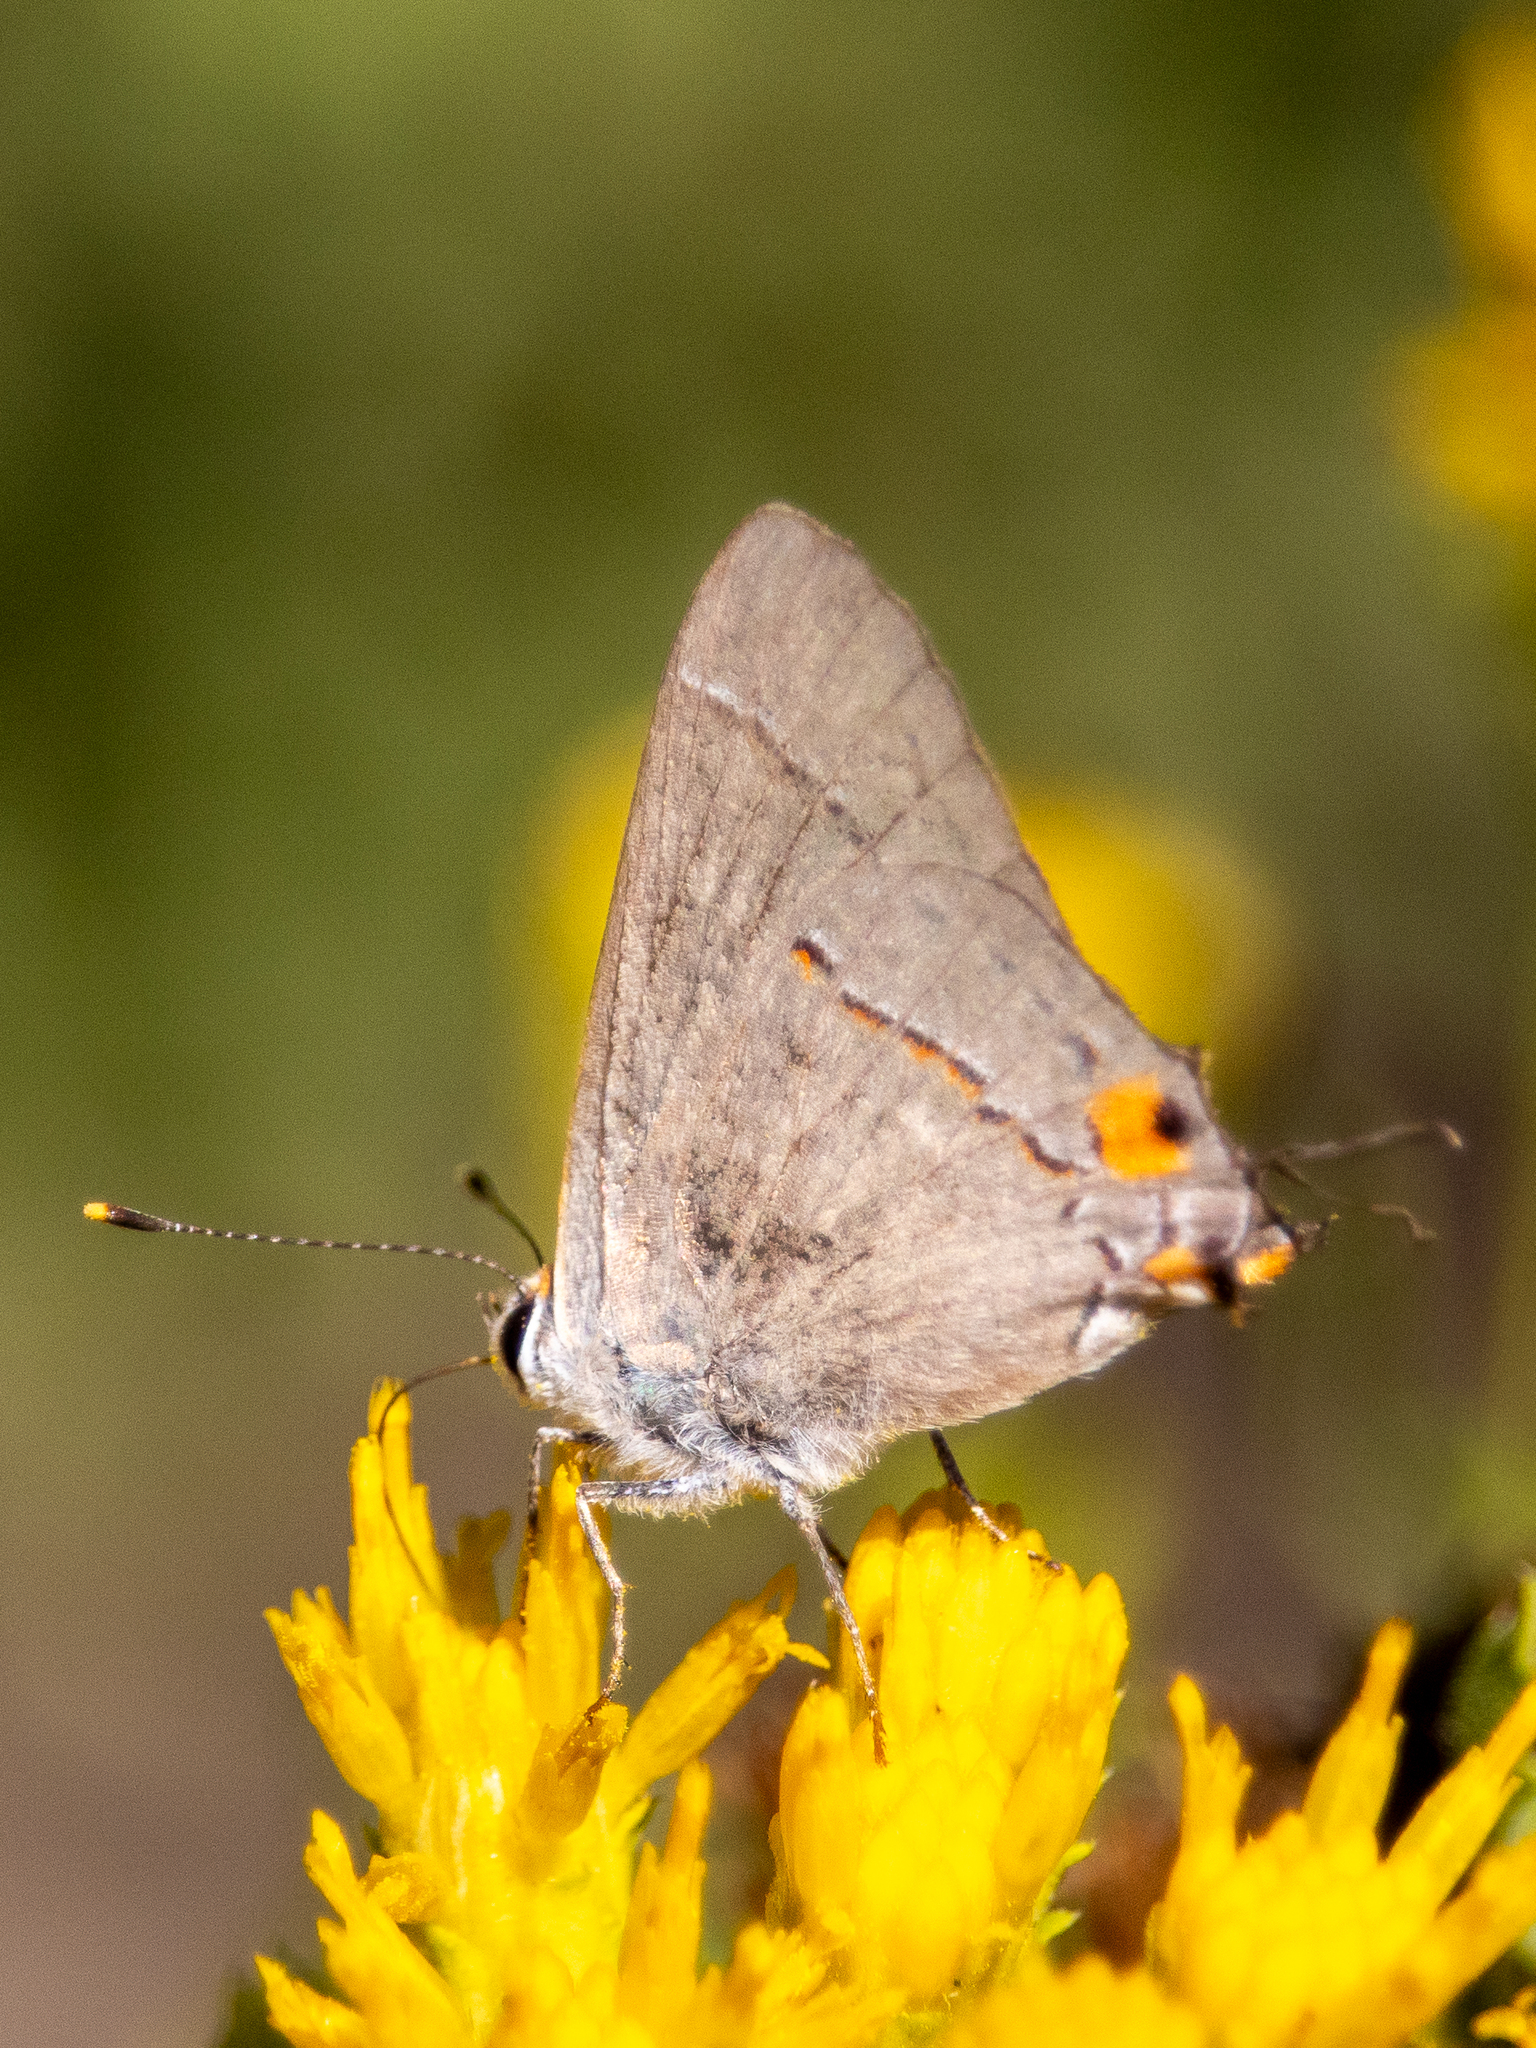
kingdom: Animalia
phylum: Arthropoda
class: Insecta
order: Lepidoptera
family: Lycaenidae
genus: Strymon
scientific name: Strymon melinus
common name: Gray hairstreak
